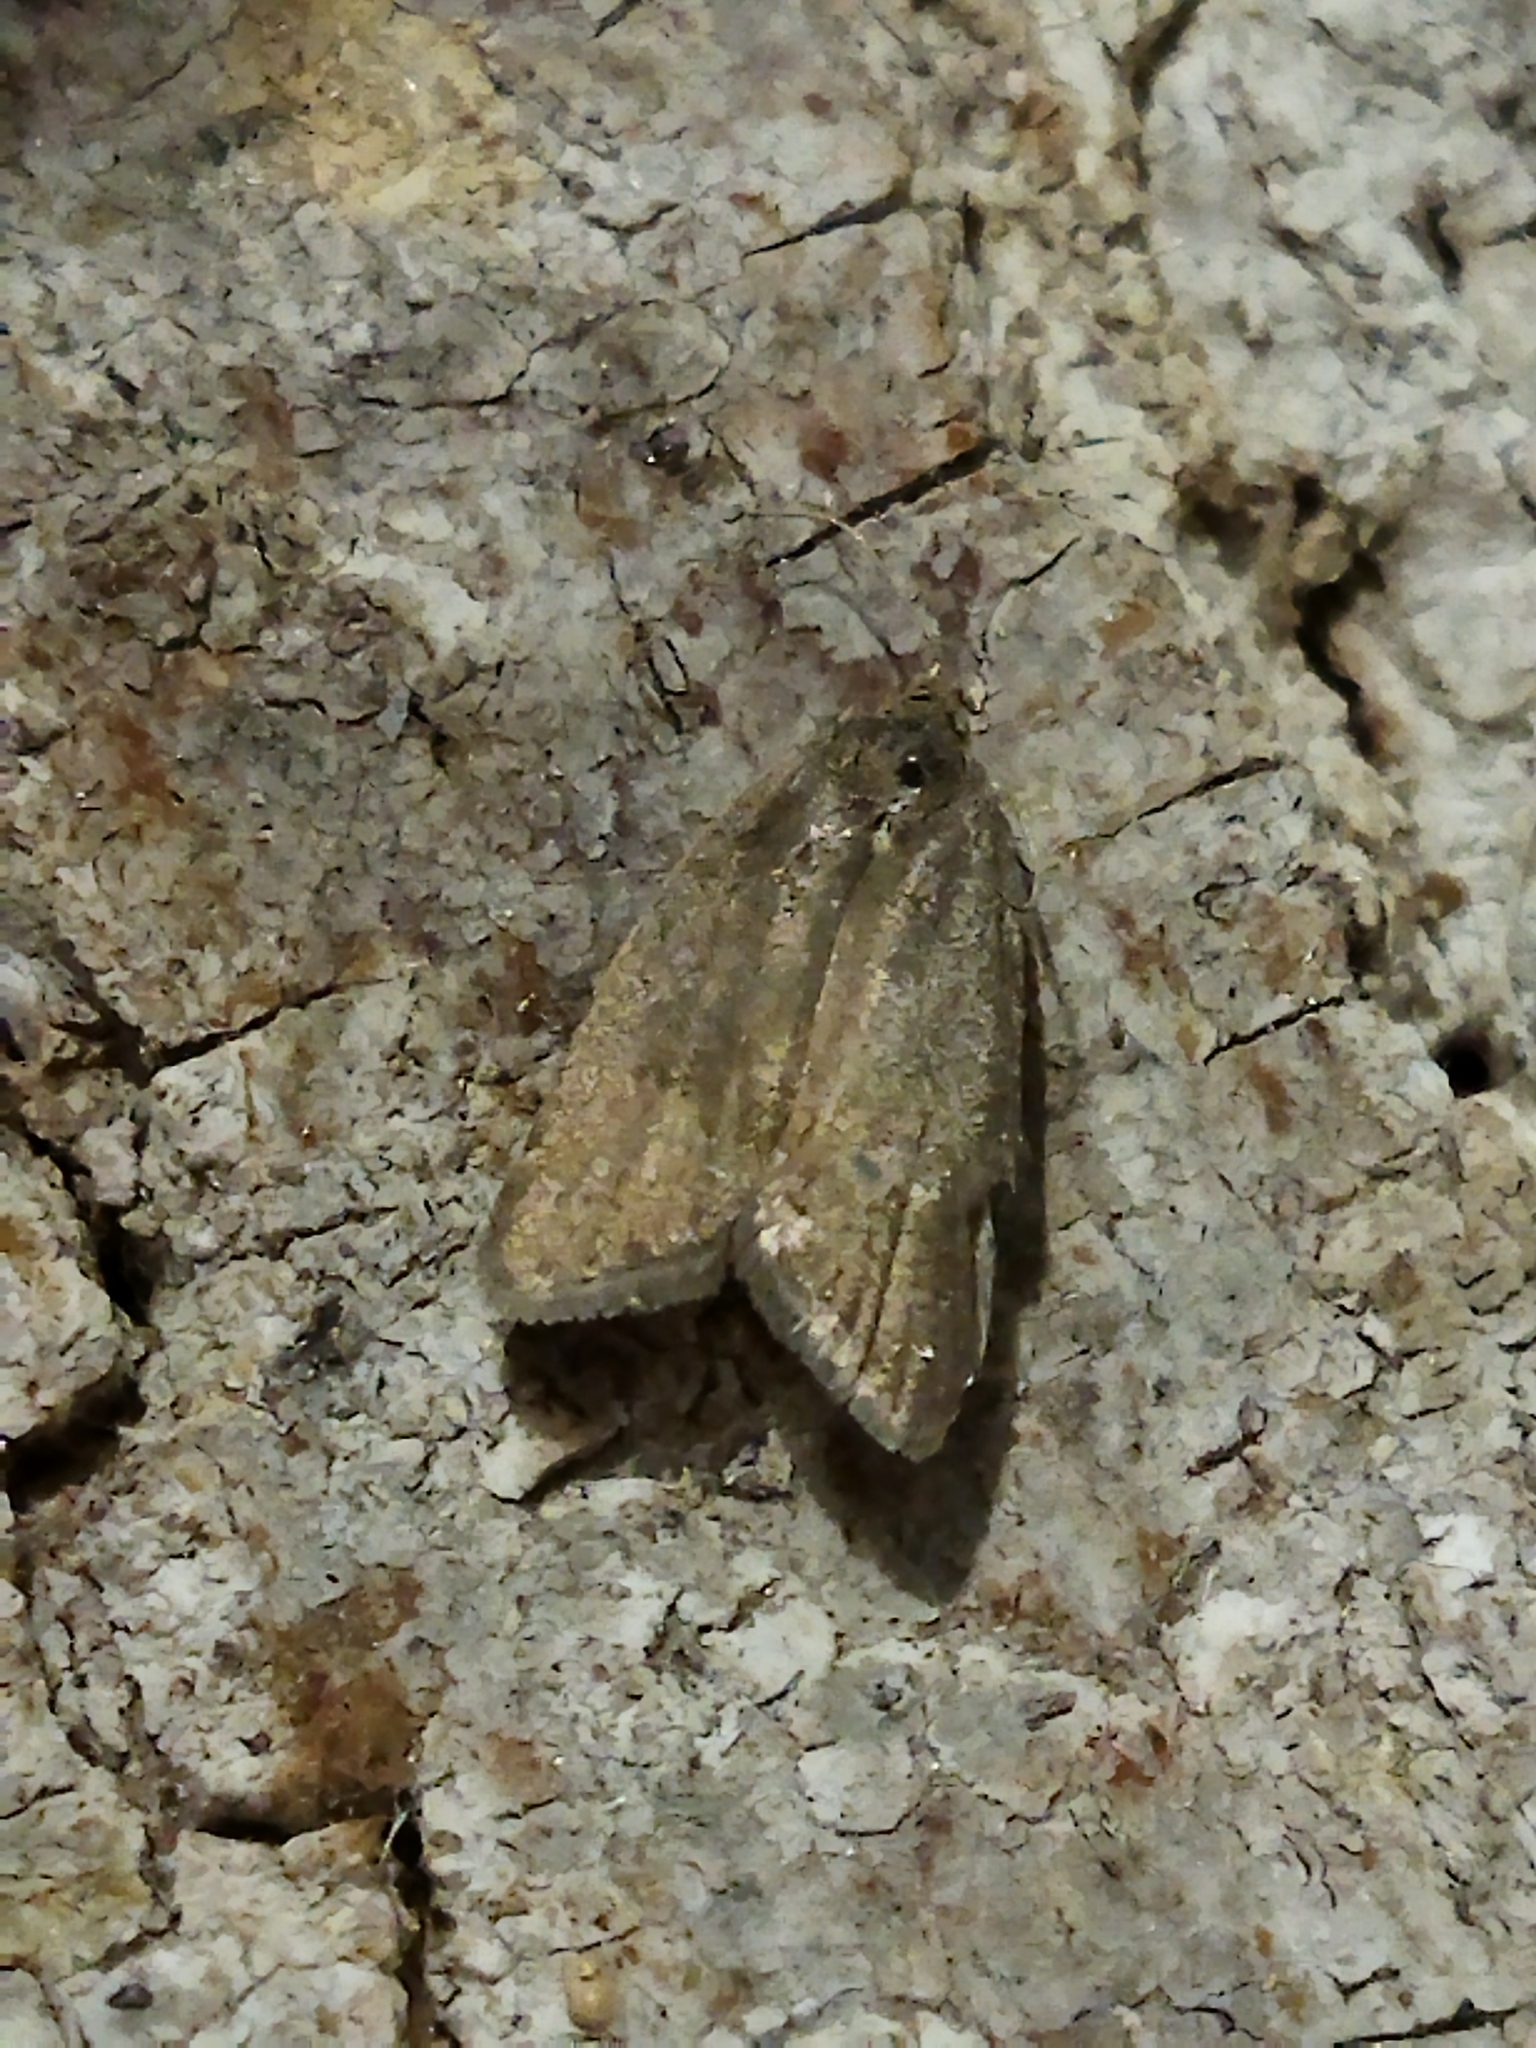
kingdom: Animalia
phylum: Arthropoda
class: Insecta
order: Lepidoptera
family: Tortricidae
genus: Clepsis
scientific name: Clepsis senecionana
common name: Obscure tortrix
